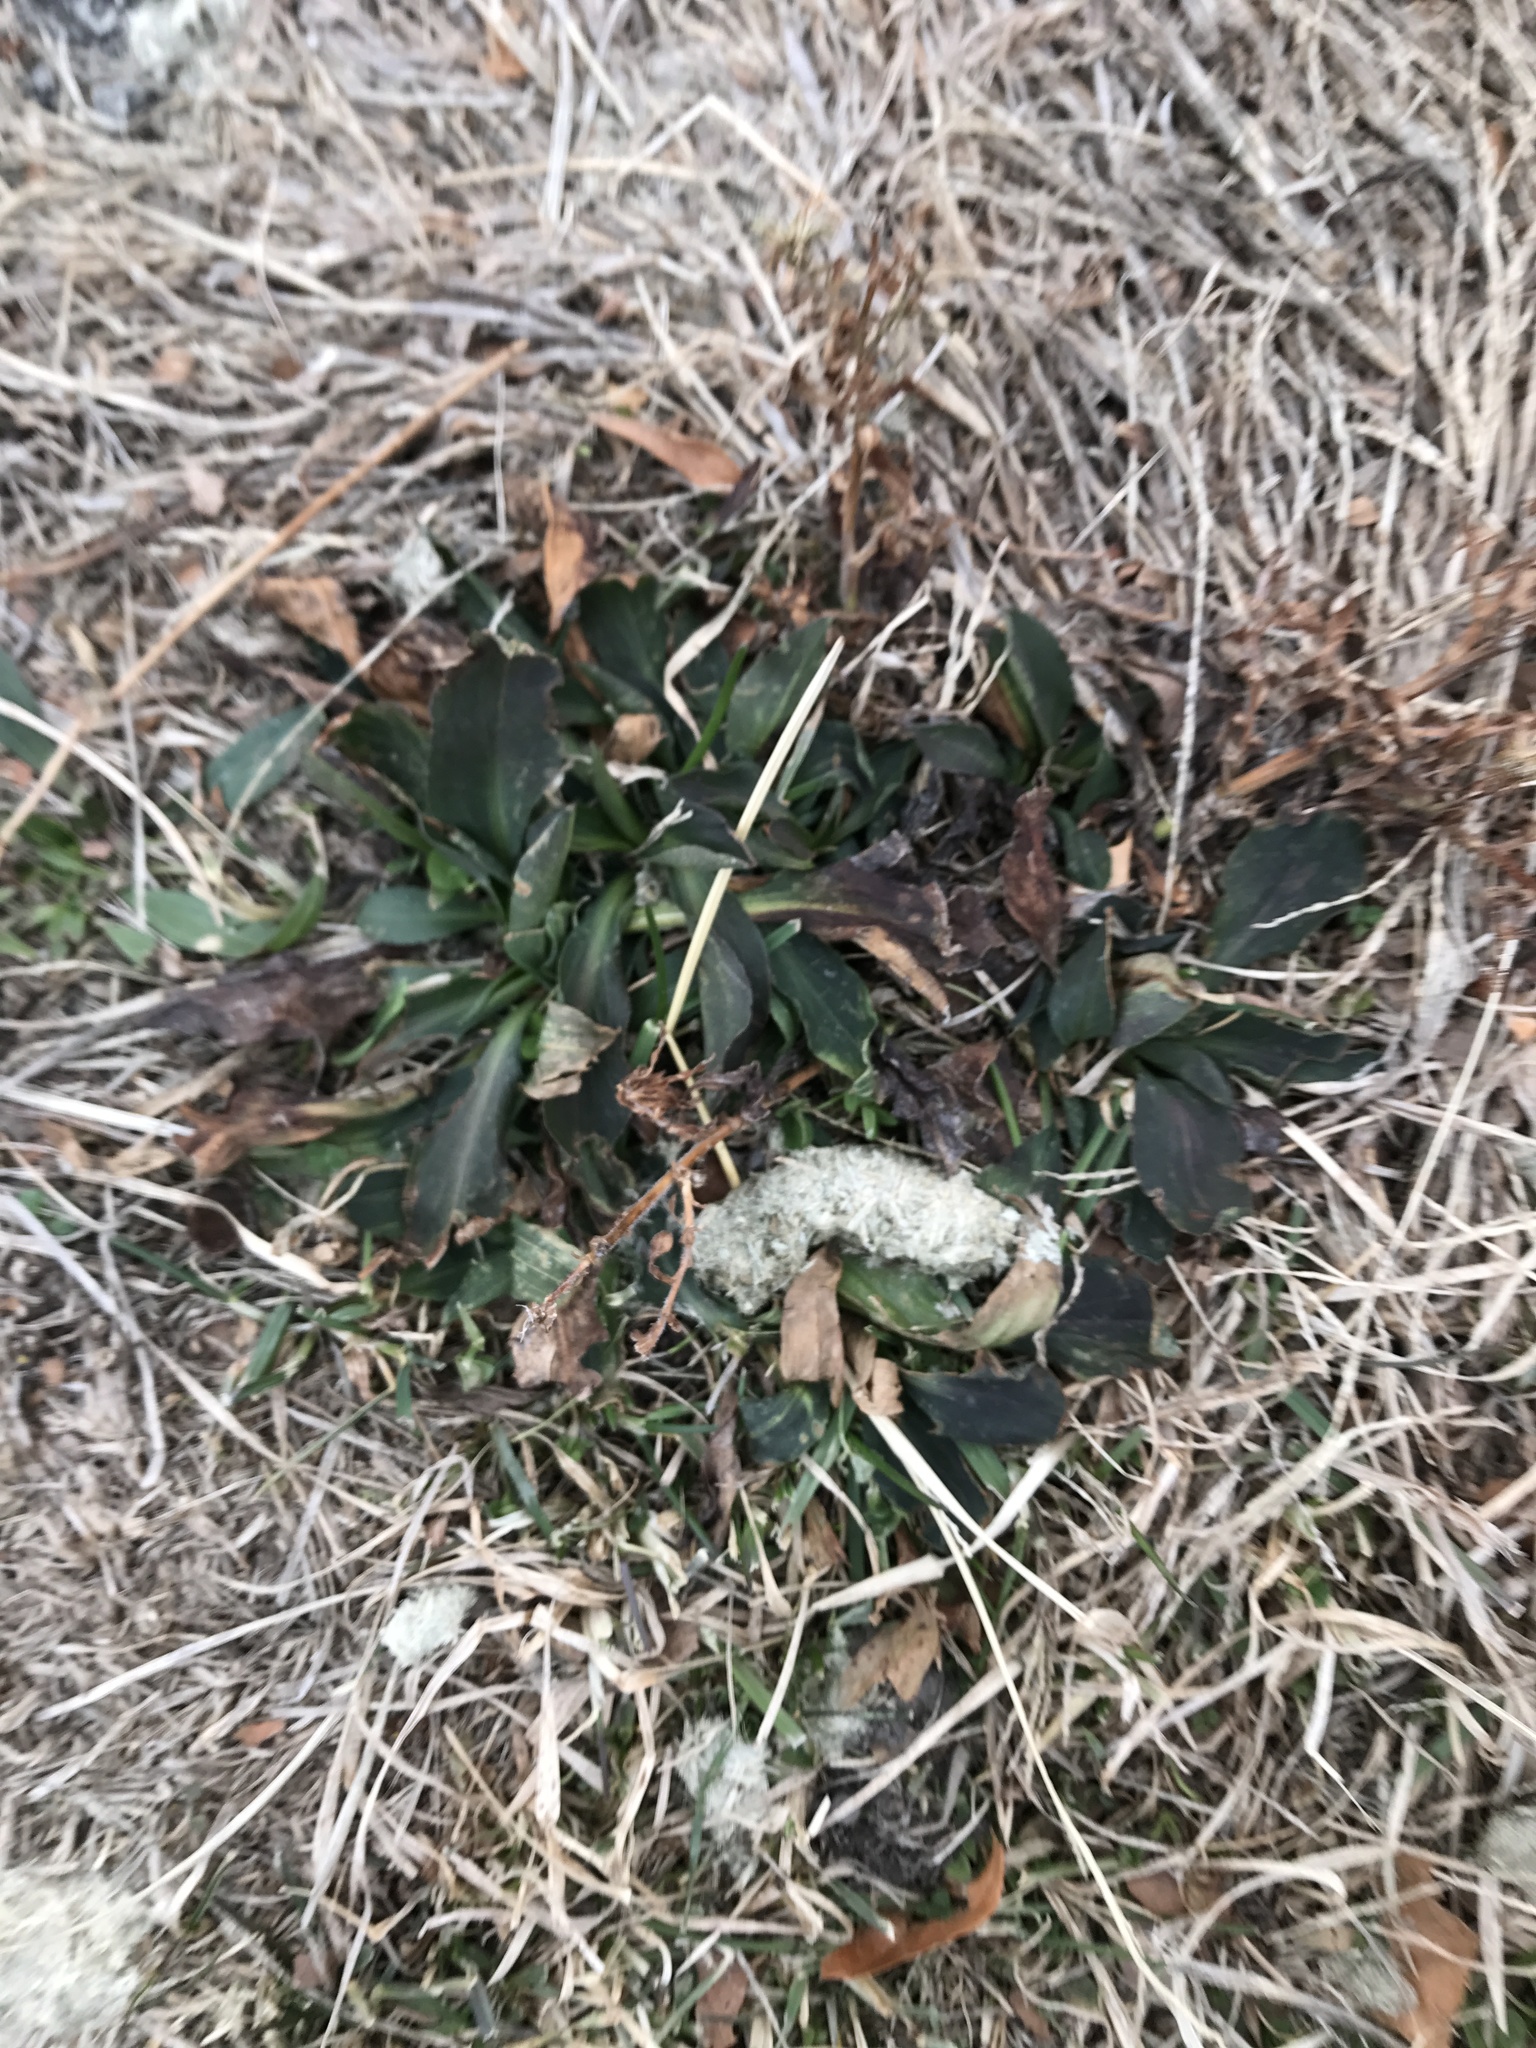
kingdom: Plantae
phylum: Tracheophyta
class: Magnoliopsida
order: Lamiales
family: Plantaginaceae
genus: Plantago
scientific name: Plantago lanceolata
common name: Ribwort plantain
